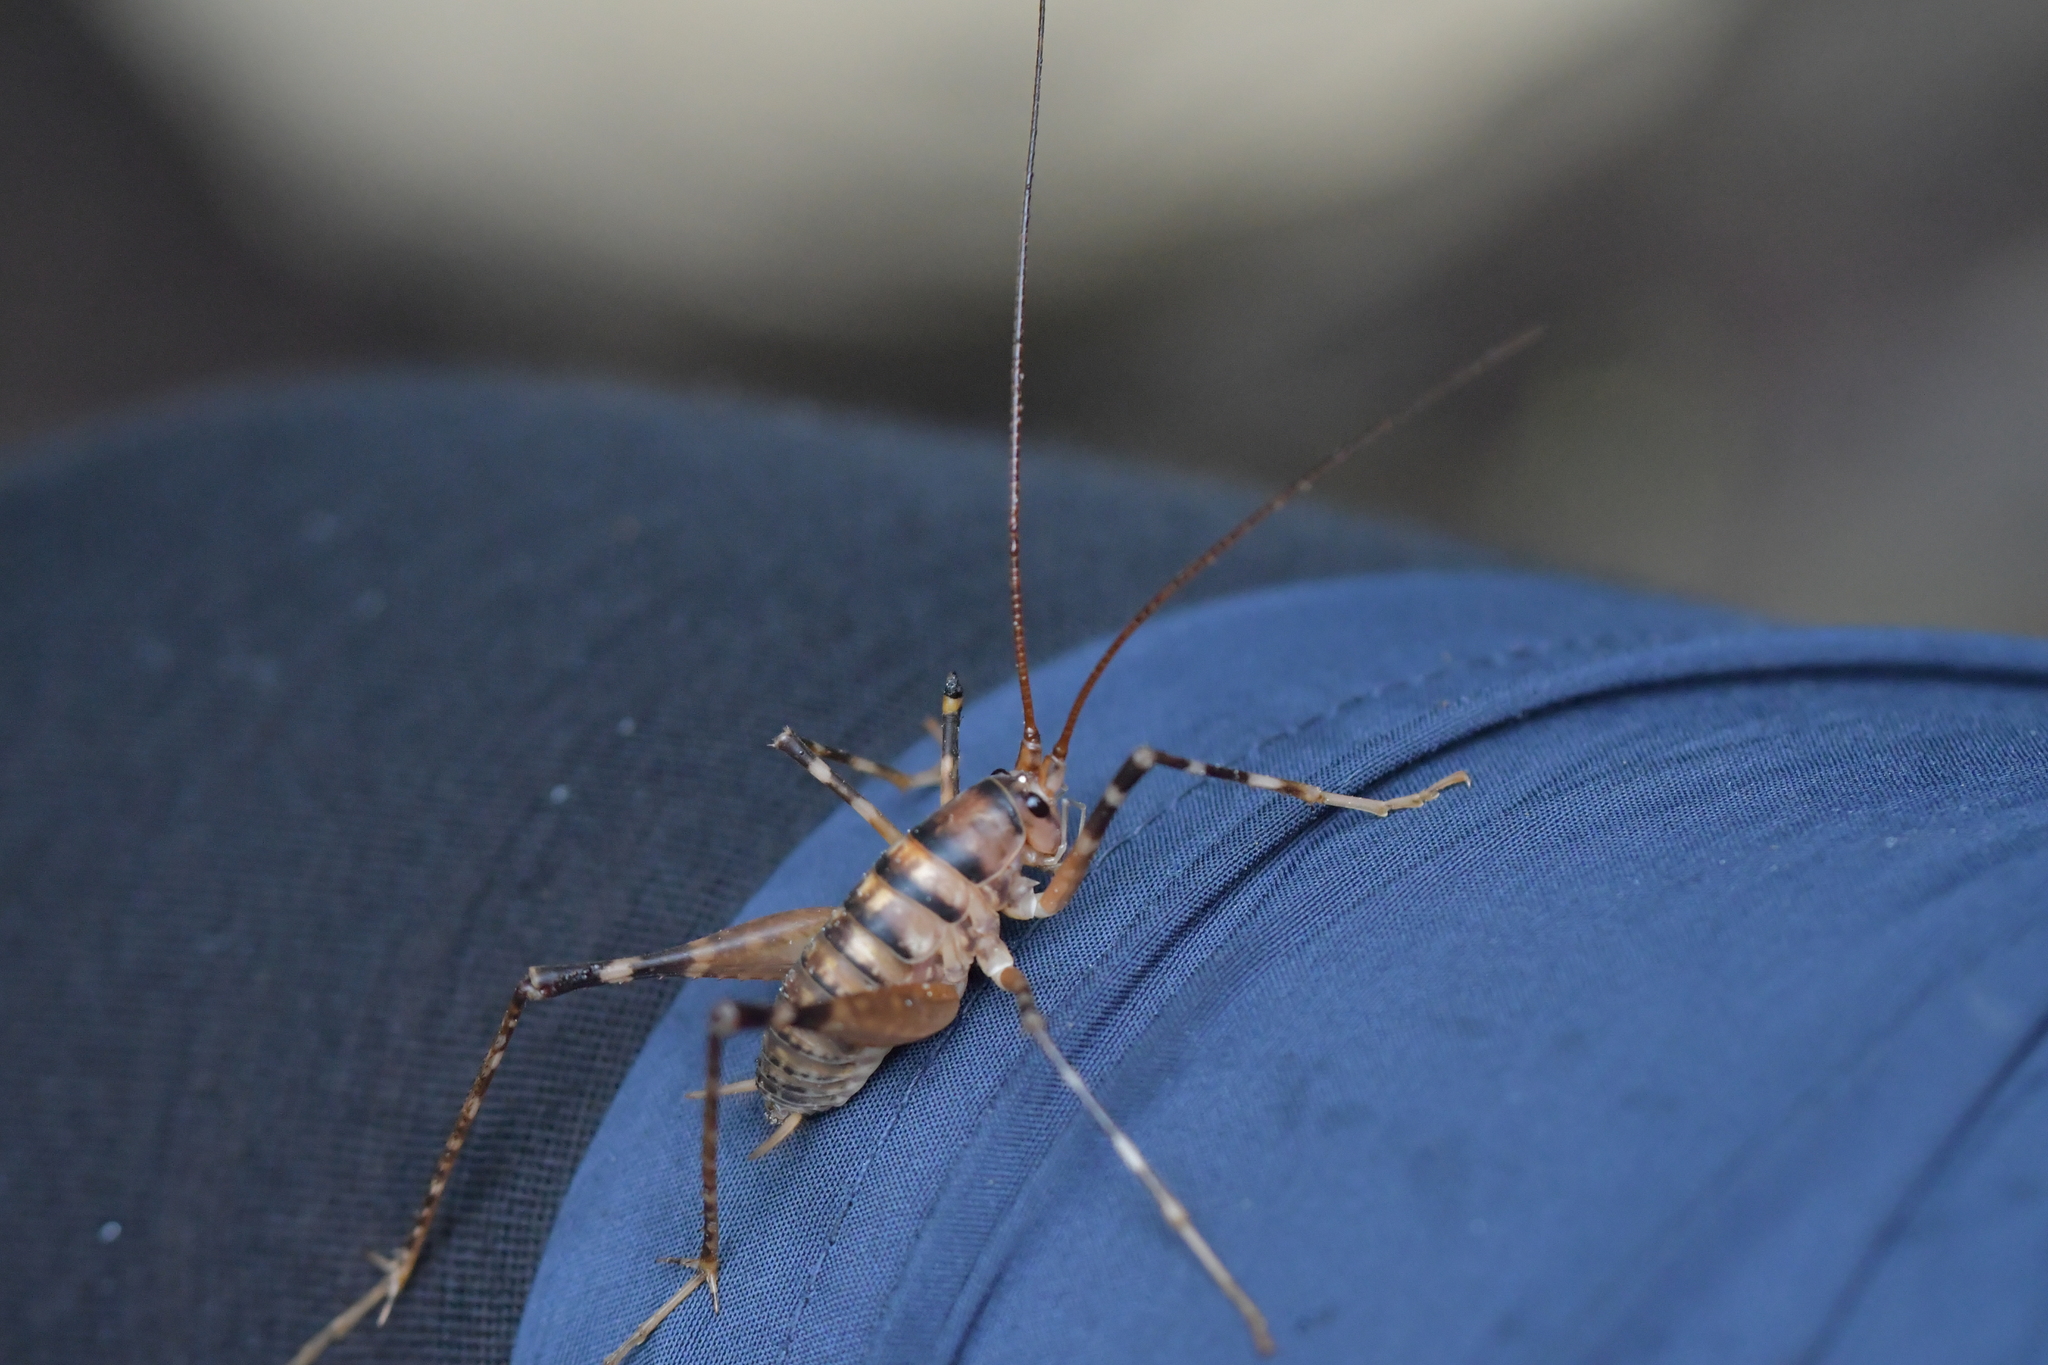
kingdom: Animalia
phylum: Arthropoda
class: Insecta
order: Orthoptera
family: Rhaphidophoridae
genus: Pachyrhamma
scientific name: Pachyrhamma edwardsii
